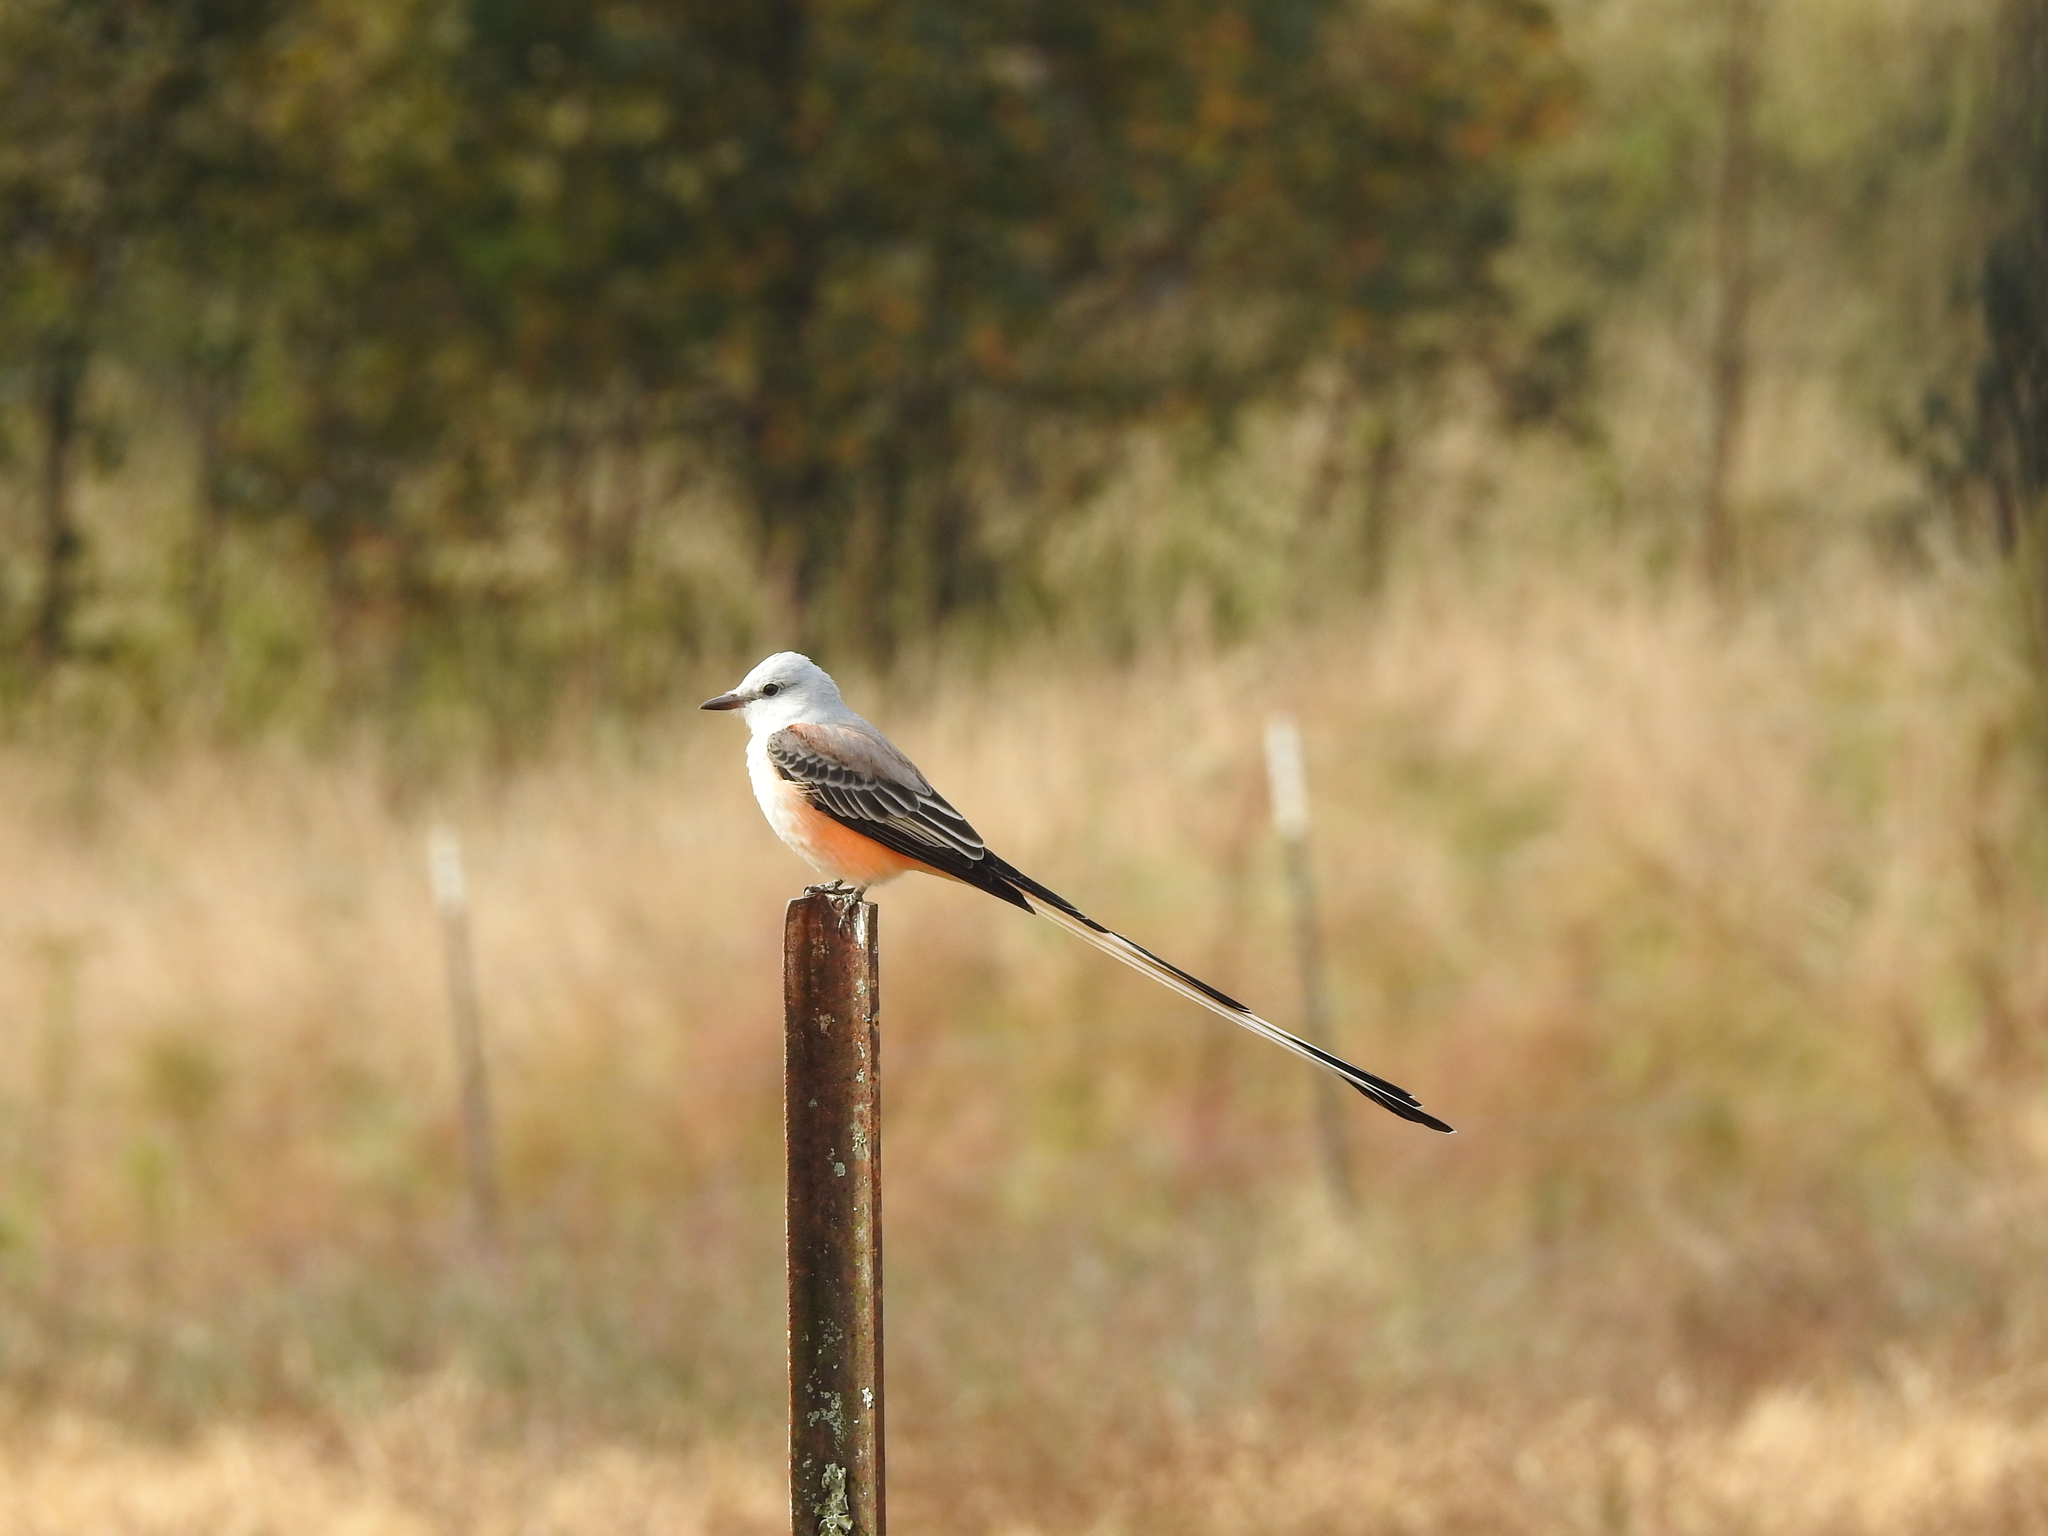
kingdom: Animalia
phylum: Chordata
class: Aves
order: Passeriformes
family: Tyrannidae
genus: Tyrannus
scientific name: Tyrannus forficatus
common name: Scissor-tailed flycatcher
